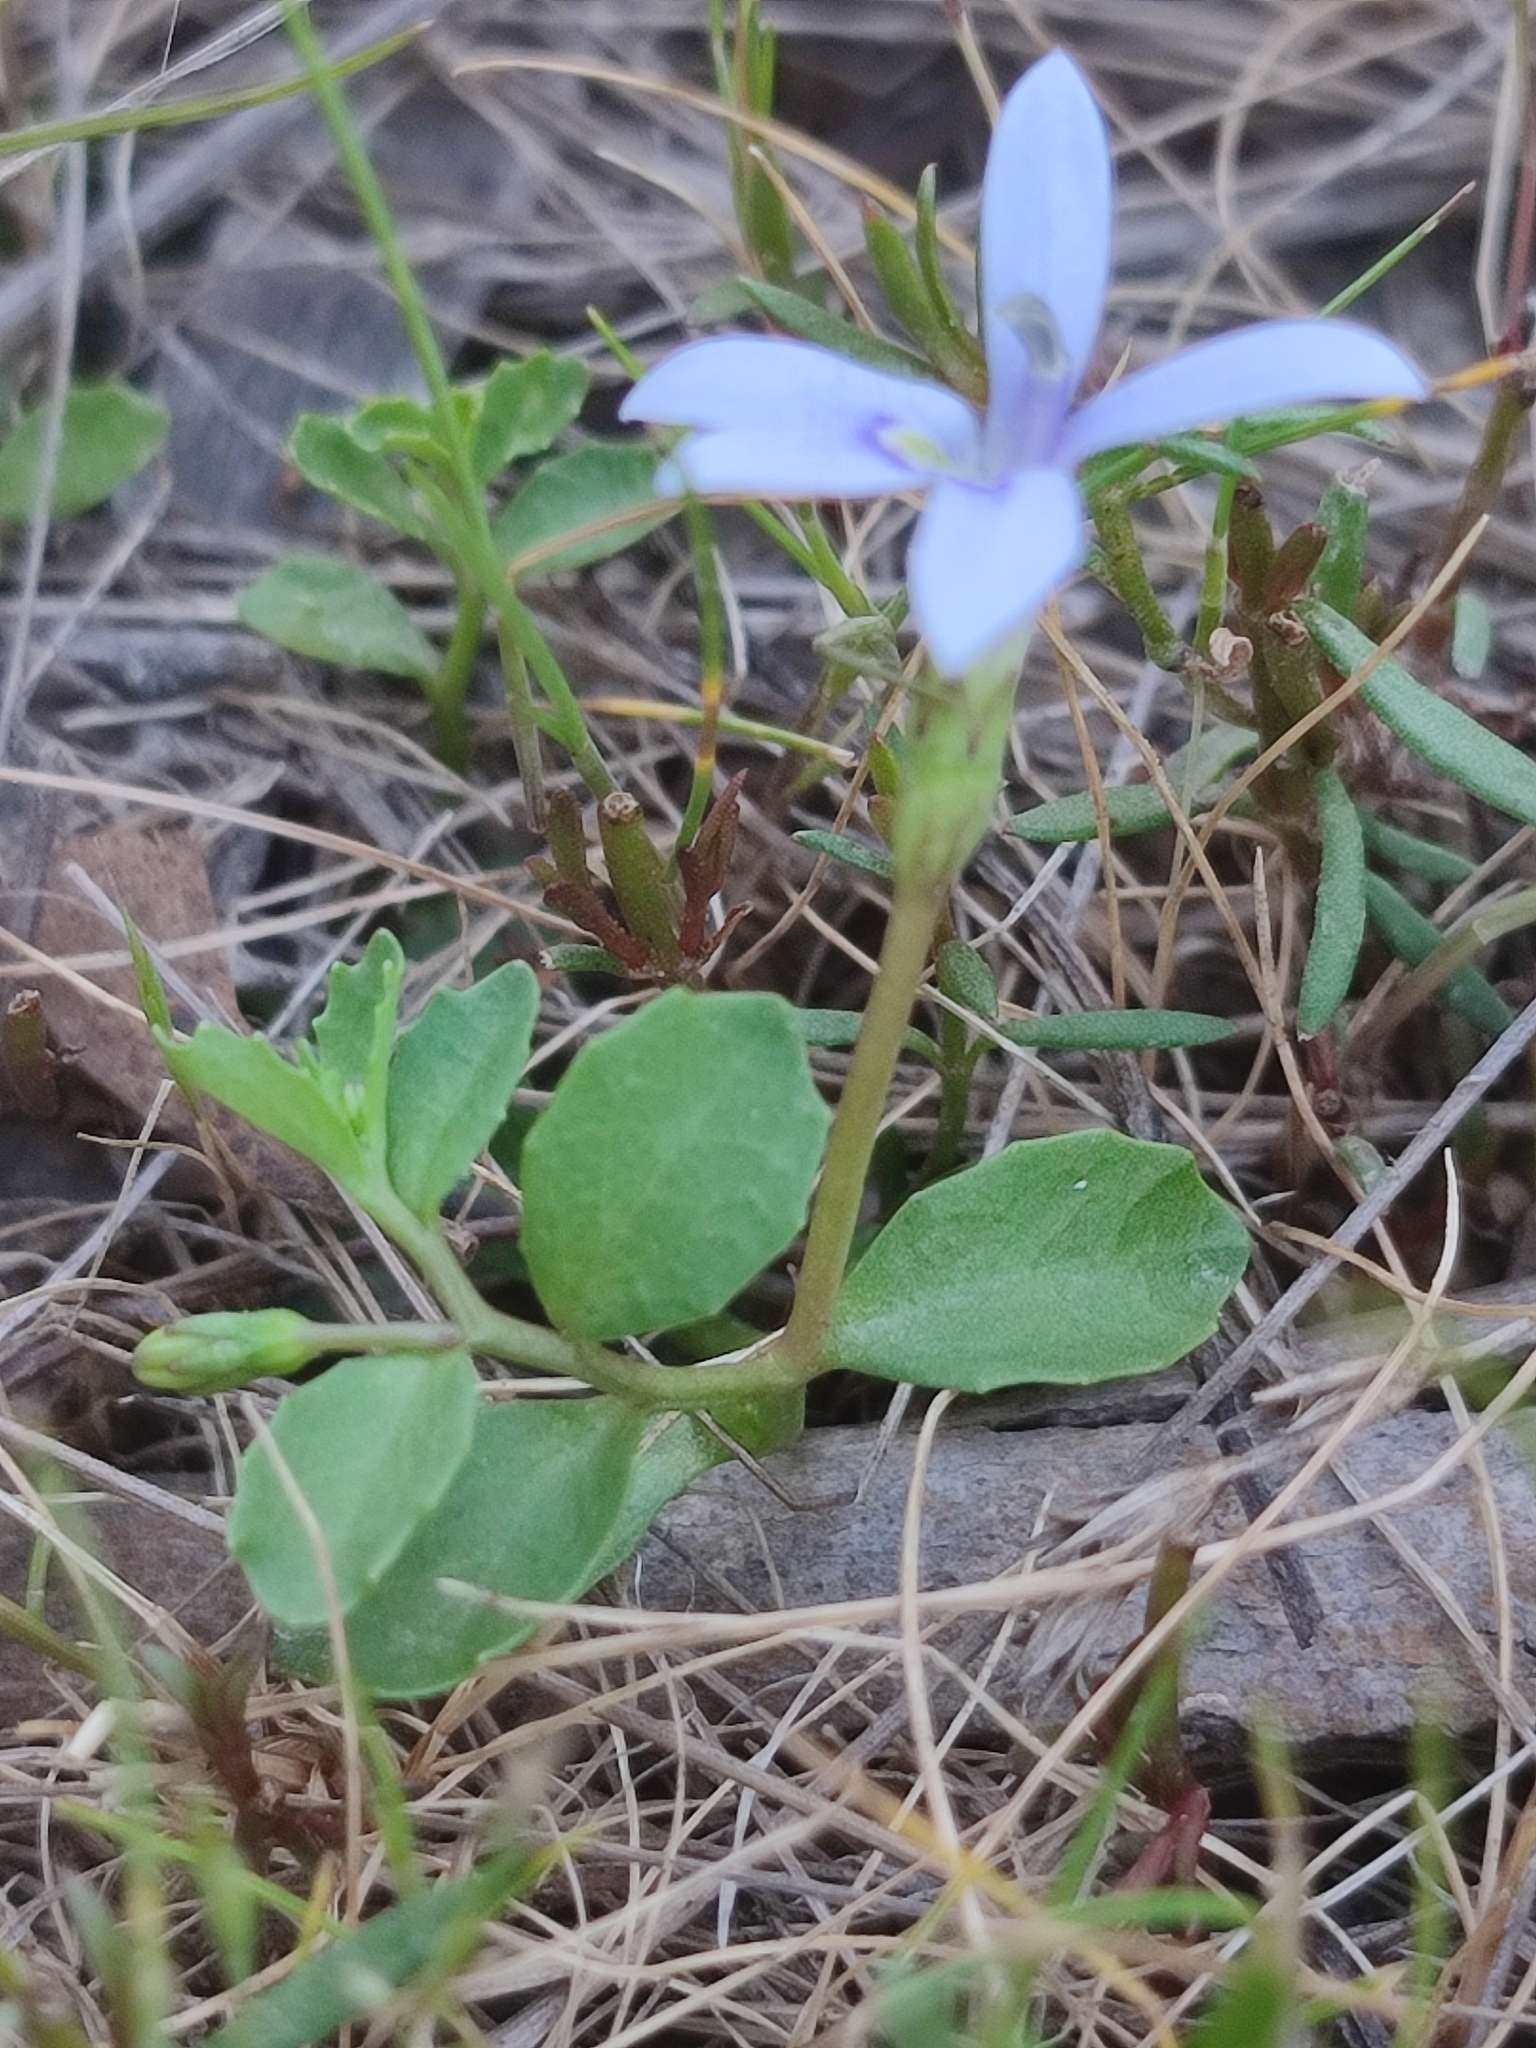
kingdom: Plantae
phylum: Tracheophyta
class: Magnoliopsida
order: Asterales
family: Campanulaceae
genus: Isotoma
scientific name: Isotoma fluviatilis
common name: Isotoma
